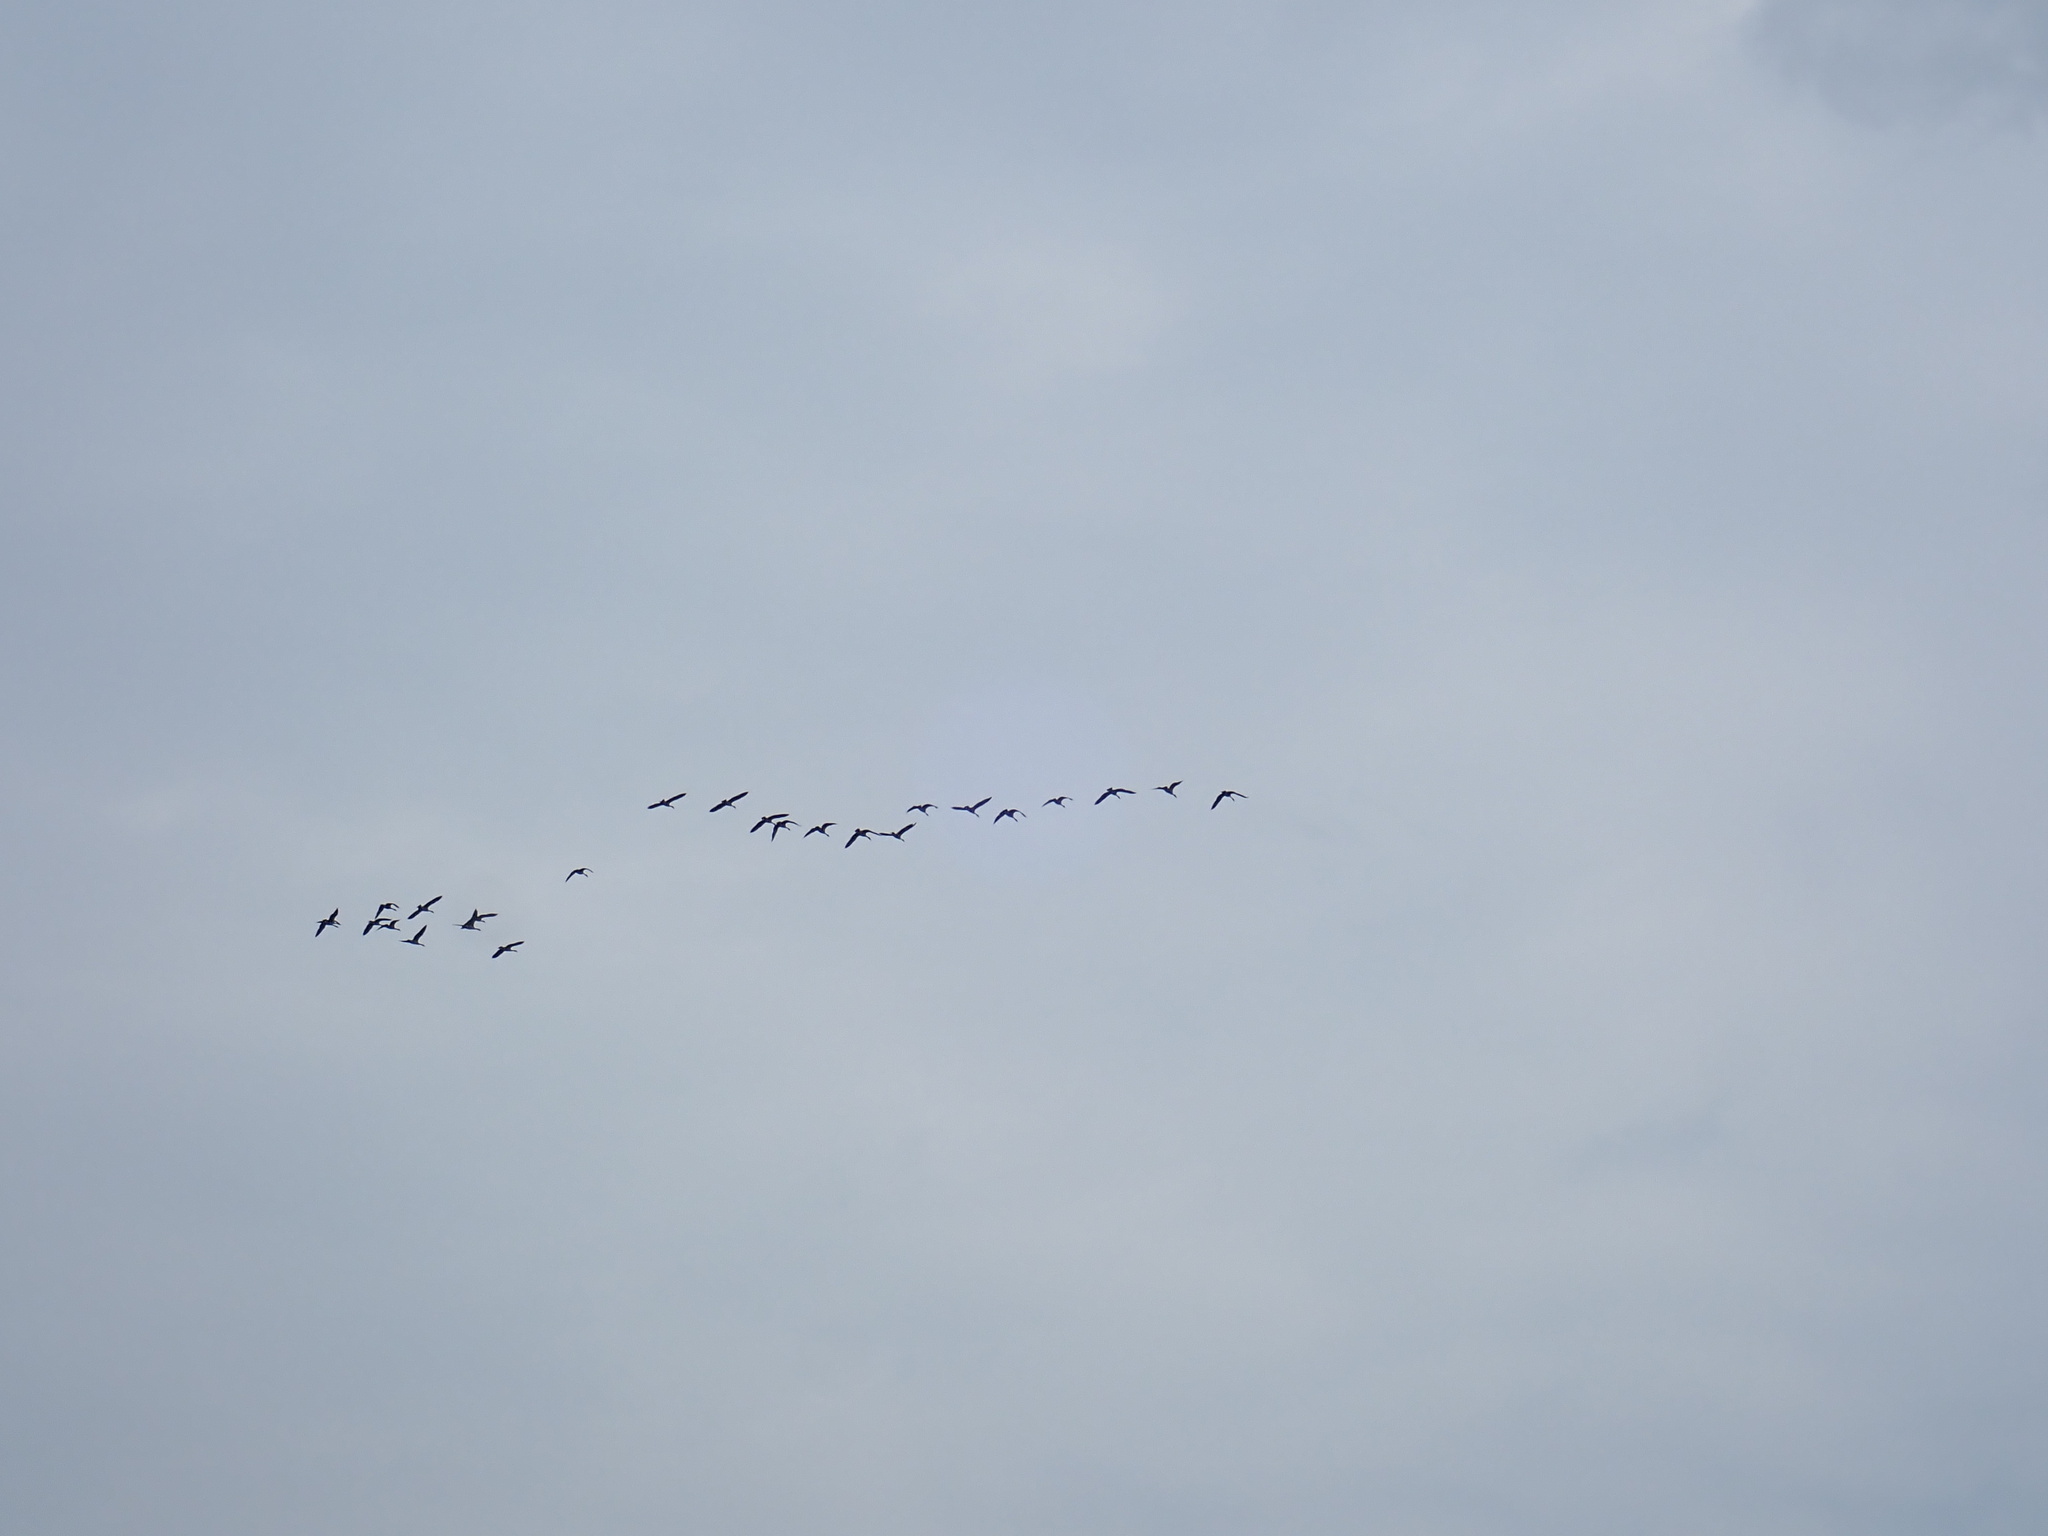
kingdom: Animalia
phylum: Chordata
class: Aves
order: Anseriformes
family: Anatidae
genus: Branta
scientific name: Branta canadensis
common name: Canada goose
